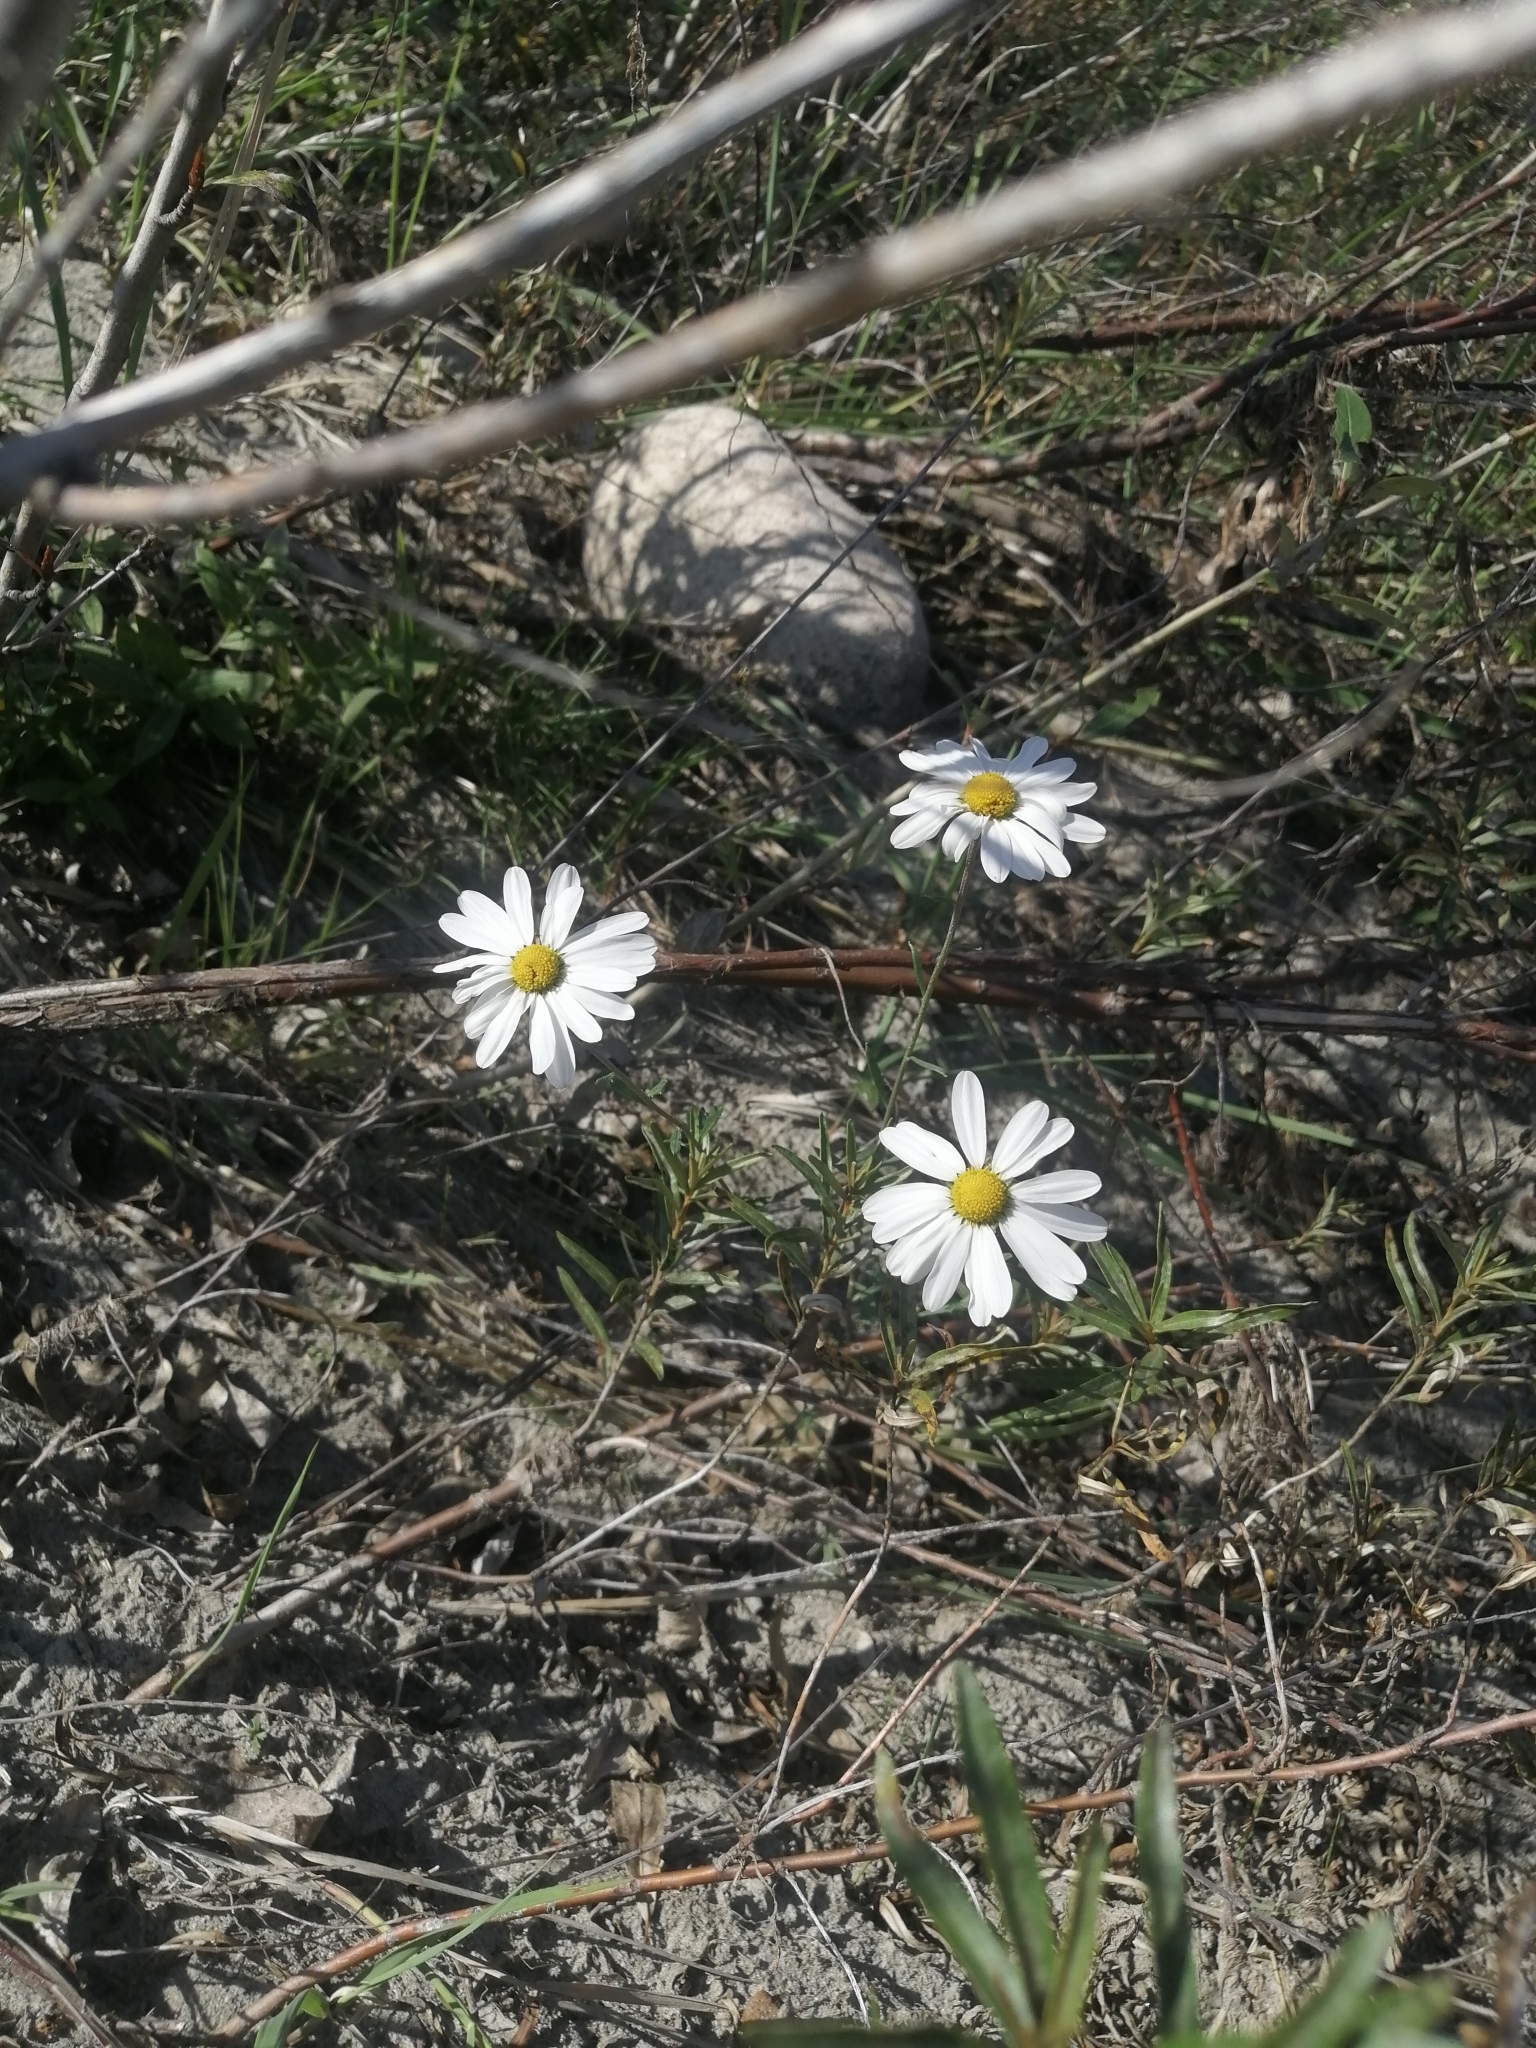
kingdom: Plantae
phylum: Tracheophyta
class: Magnoliopsida
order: Asterales
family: Asteraceae
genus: Chrysanthemum
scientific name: Chrysanthemum zawadzkii
